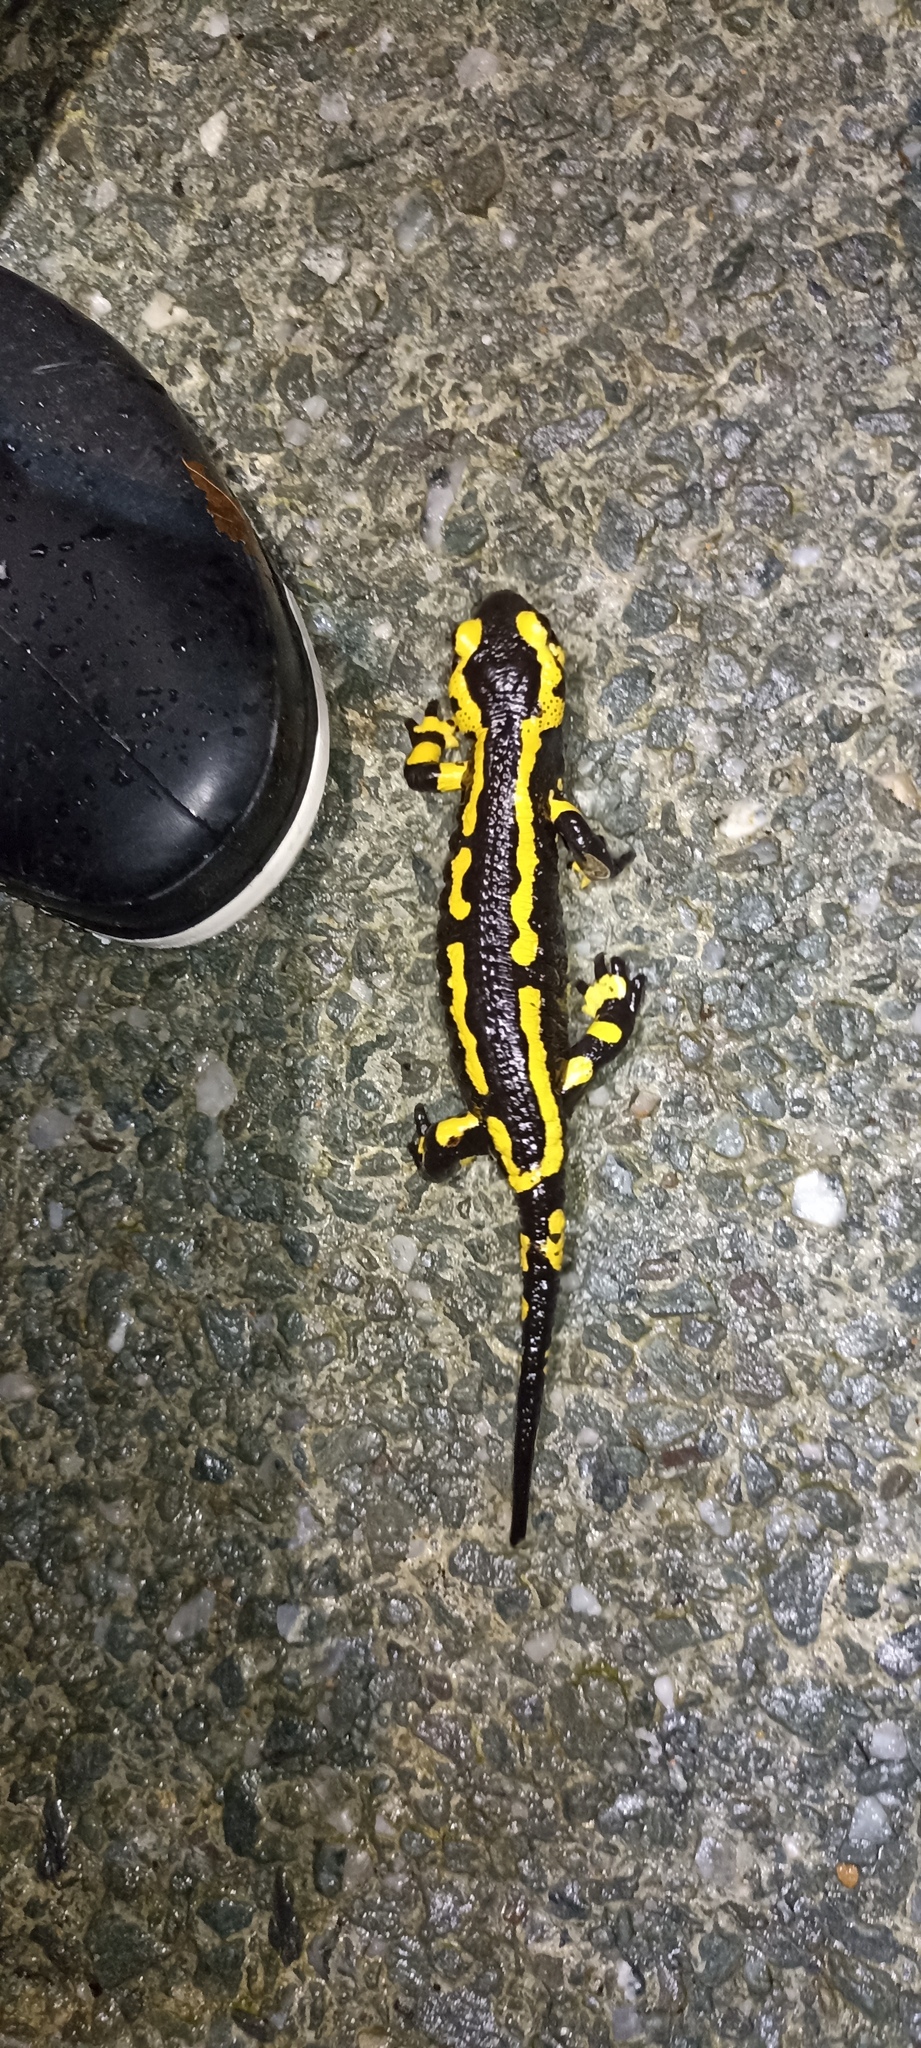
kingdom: Animalia
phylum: Chordata
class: Amphibia
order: Caudata
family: Salamandridae
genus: Salamandra
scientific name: Salamandra salamandra
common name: Fire salamander
